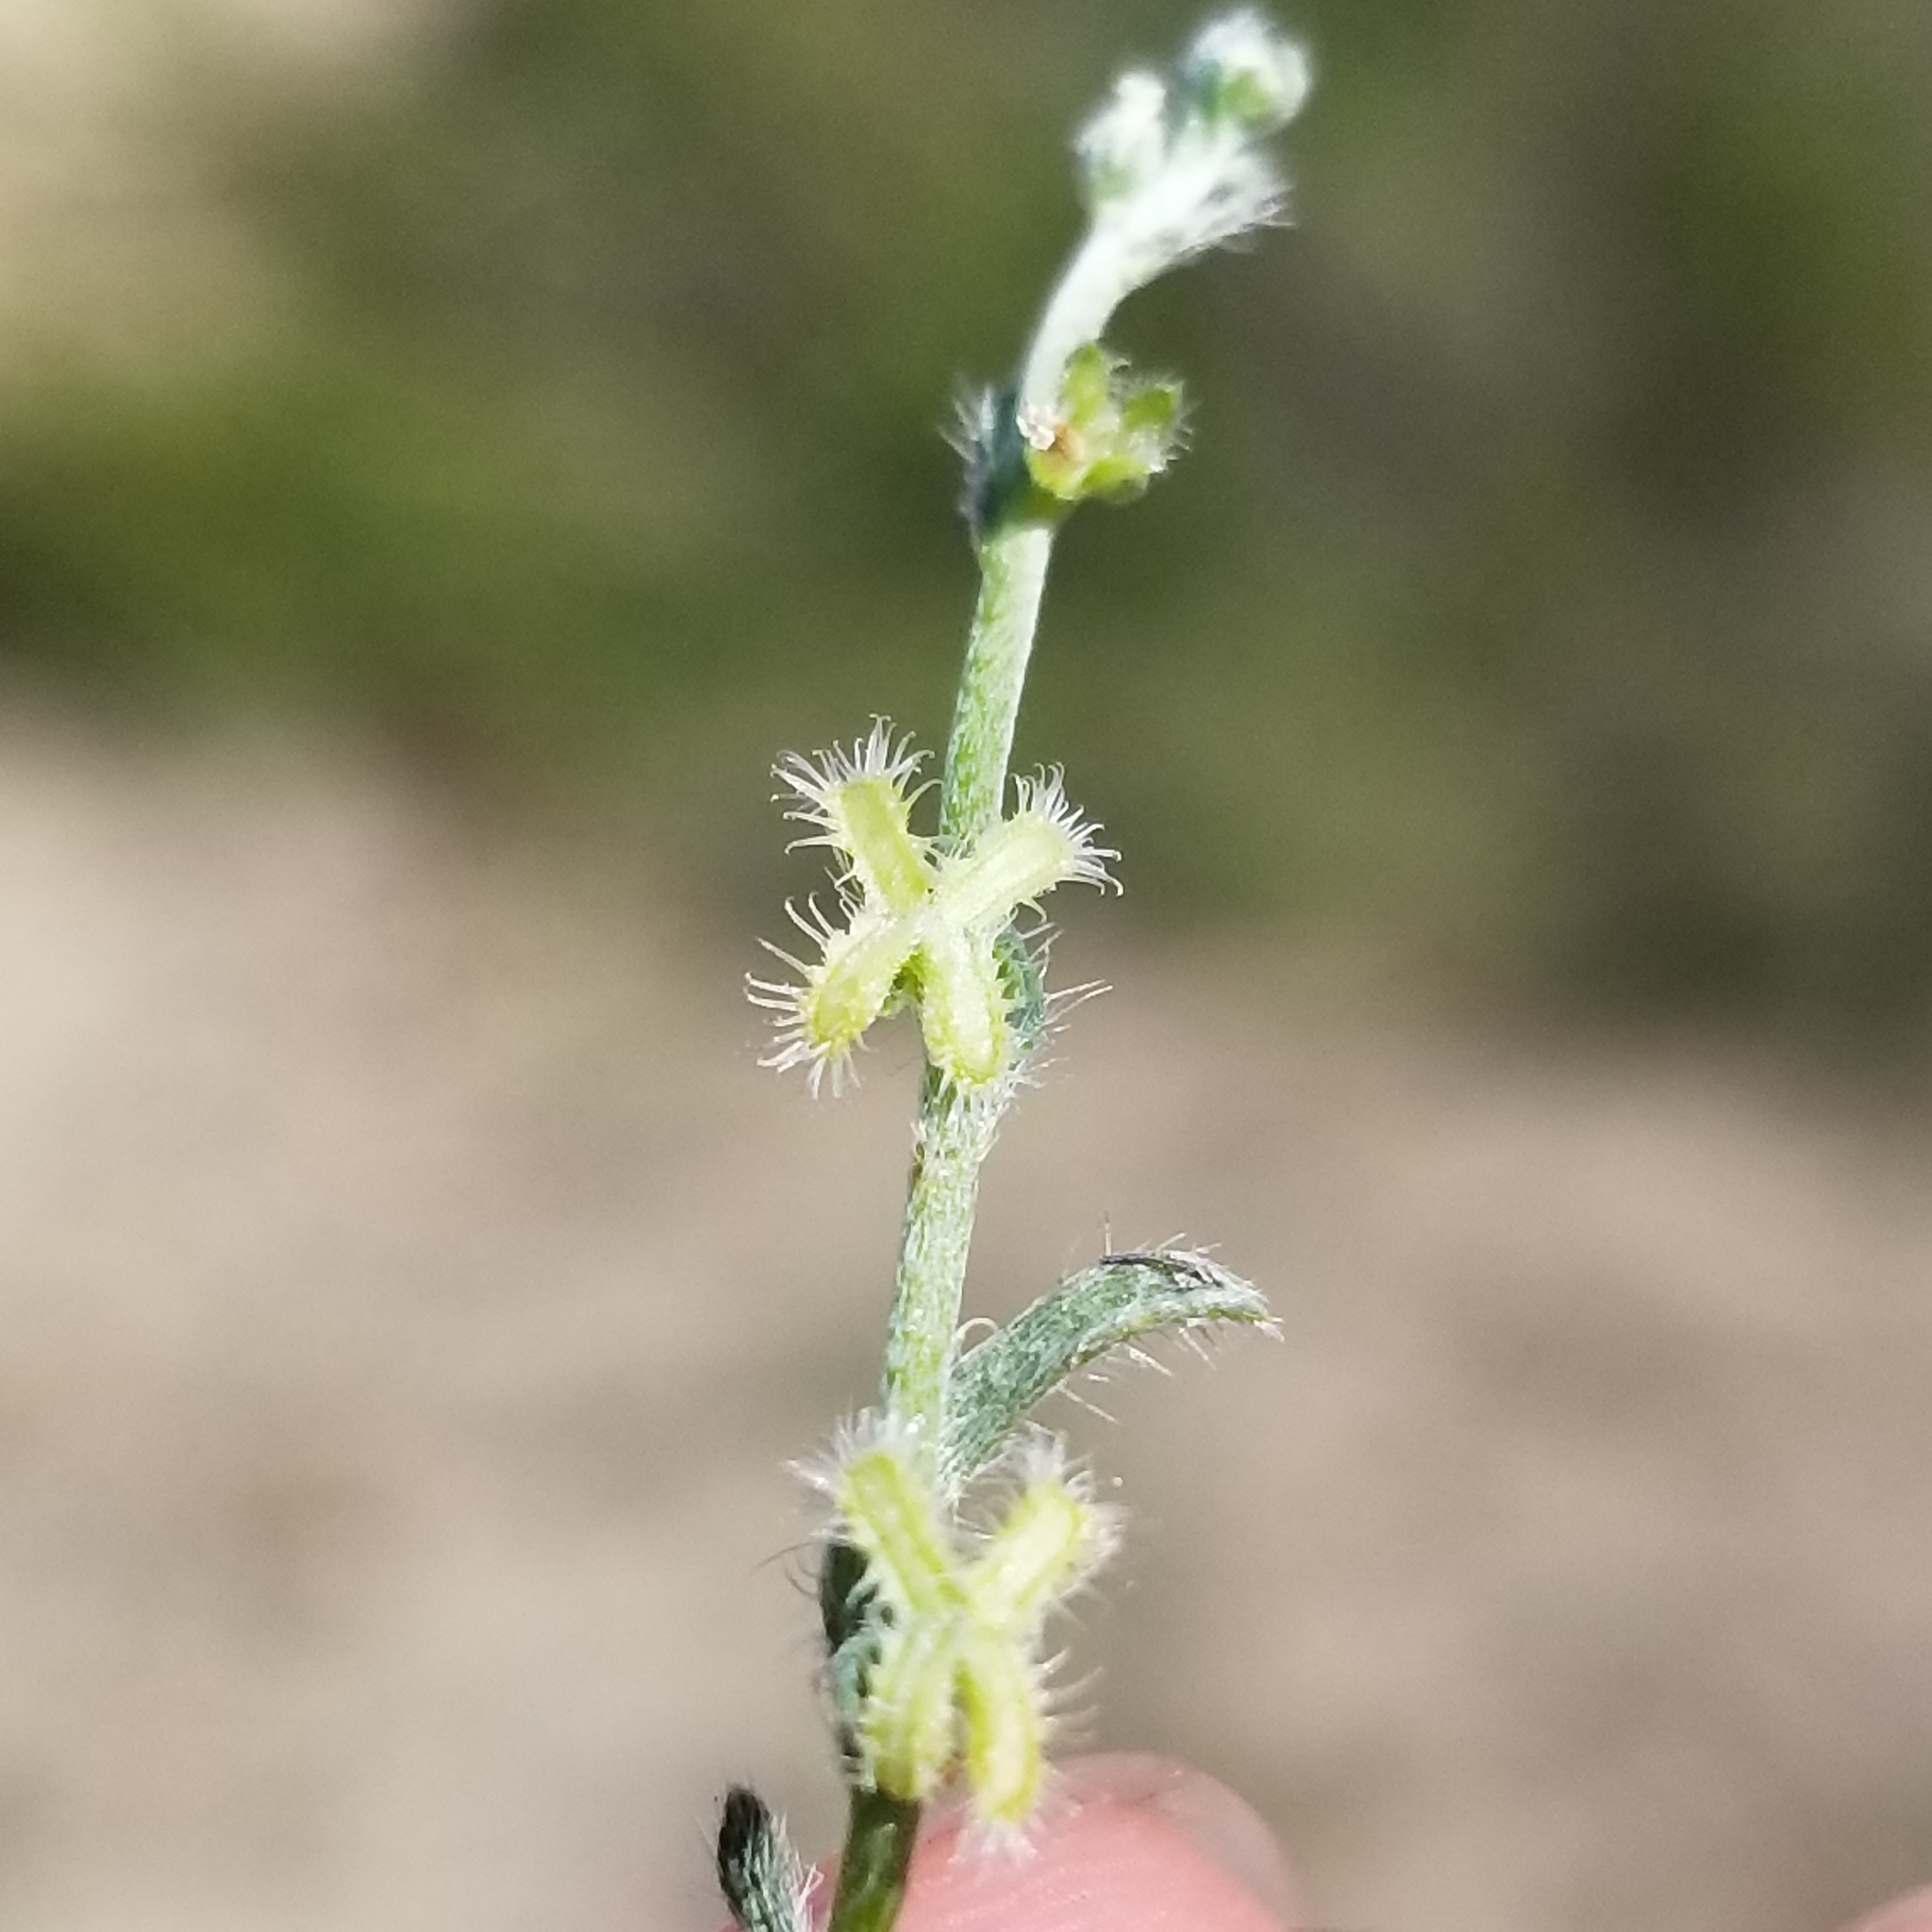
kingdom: Plantae
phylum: Tracheophyta
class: Magnoliopsida
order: Boraginales
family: Boraginaceae
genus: Pectocarya
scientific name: Pectocarya linearis
